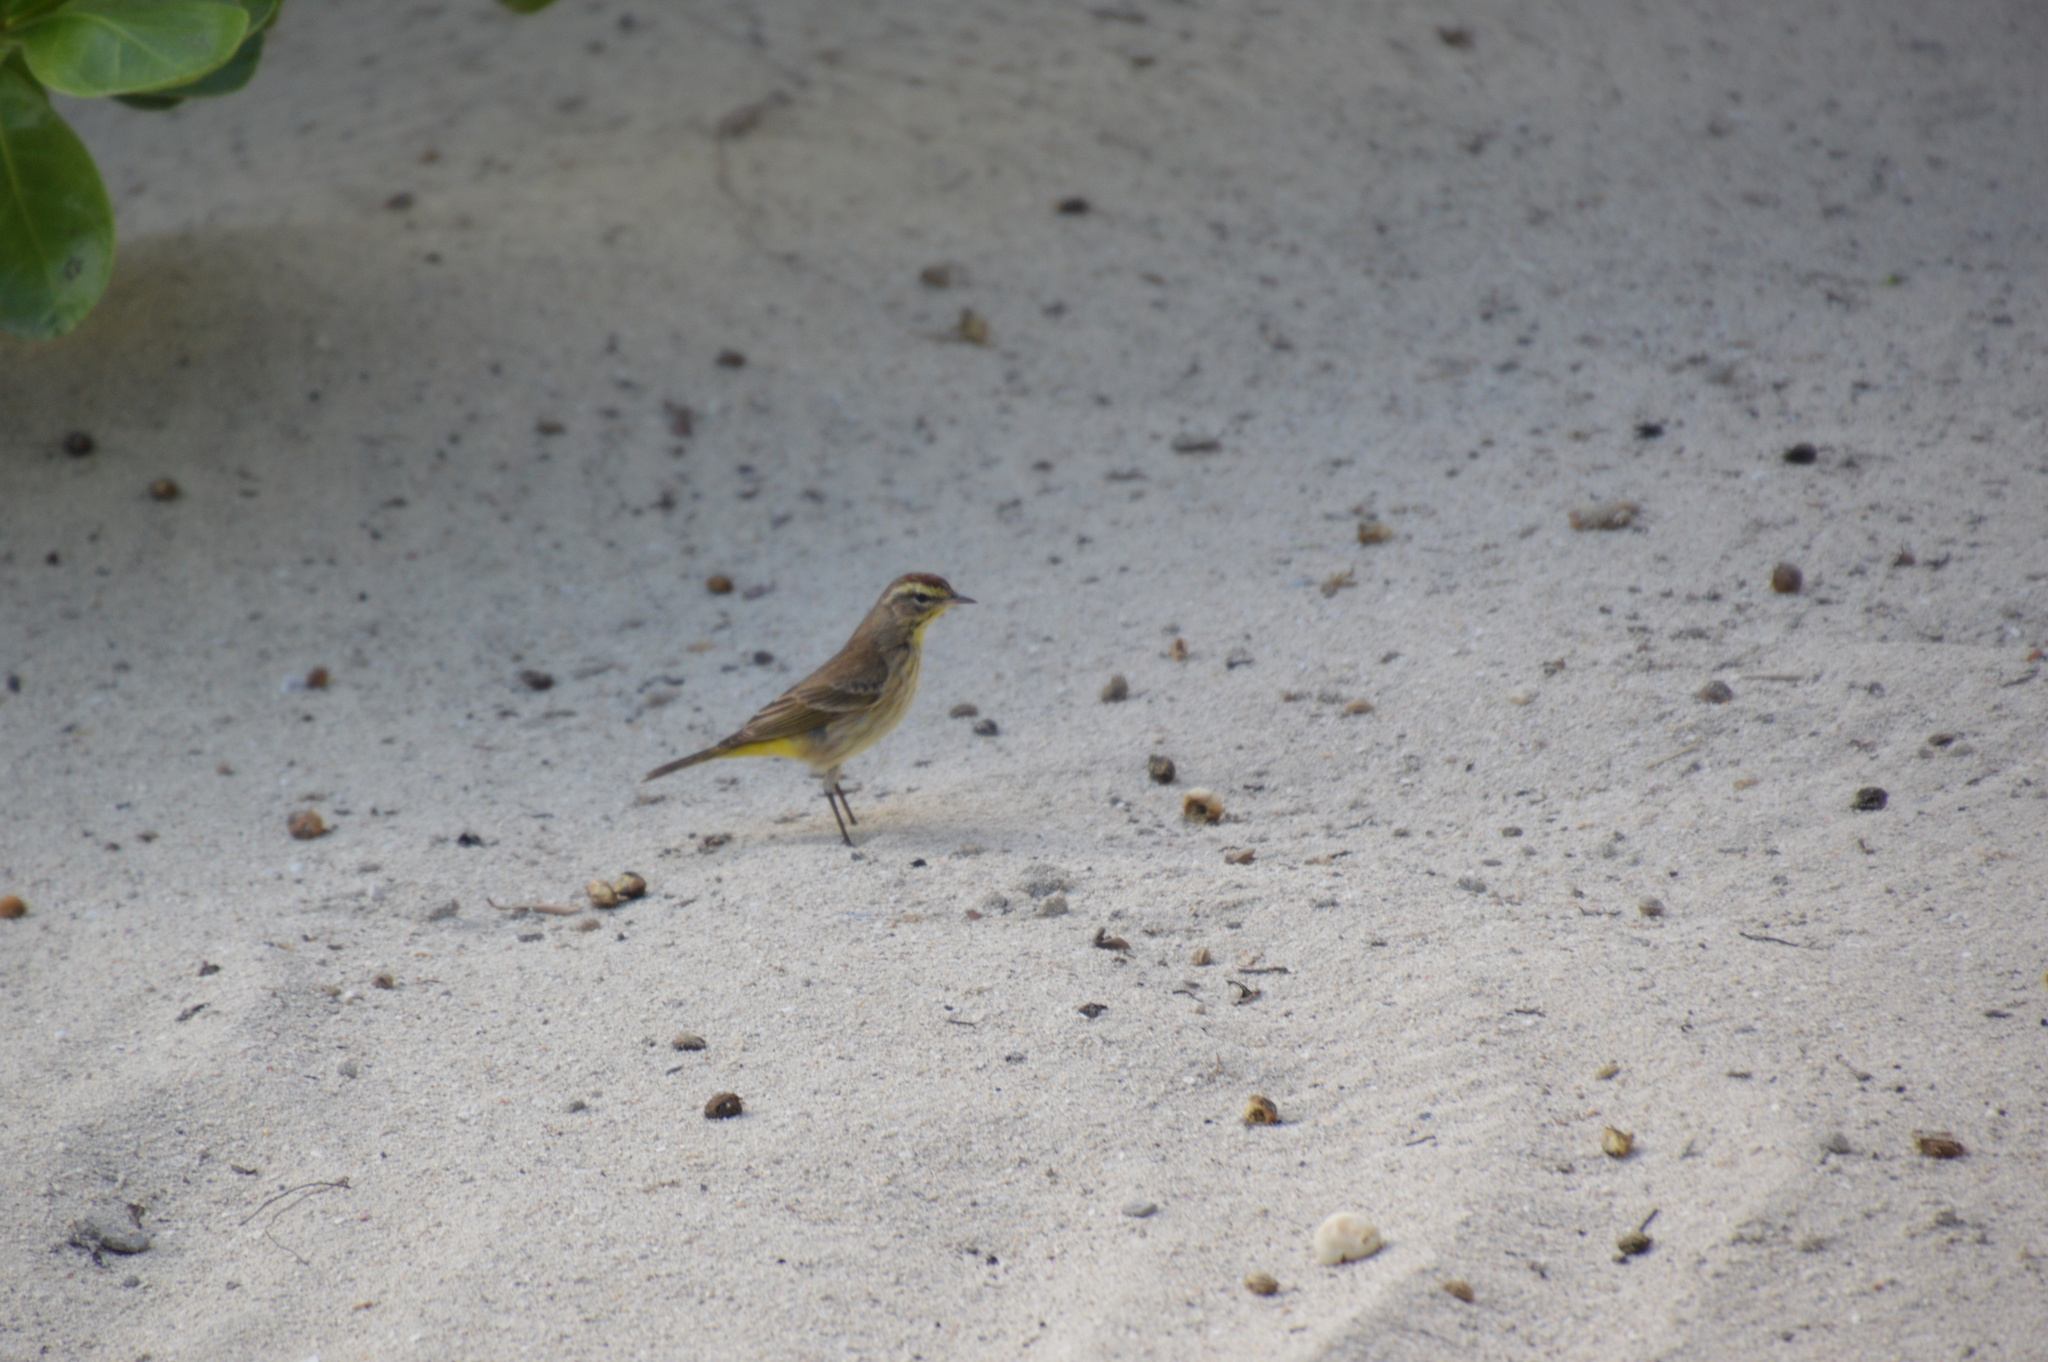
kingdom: Animalia
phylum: Chordata
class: Aves
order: Passeriformes
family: Parulidae
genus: Setophaga
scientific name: Setophaga palmarum
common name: Palm warbler
